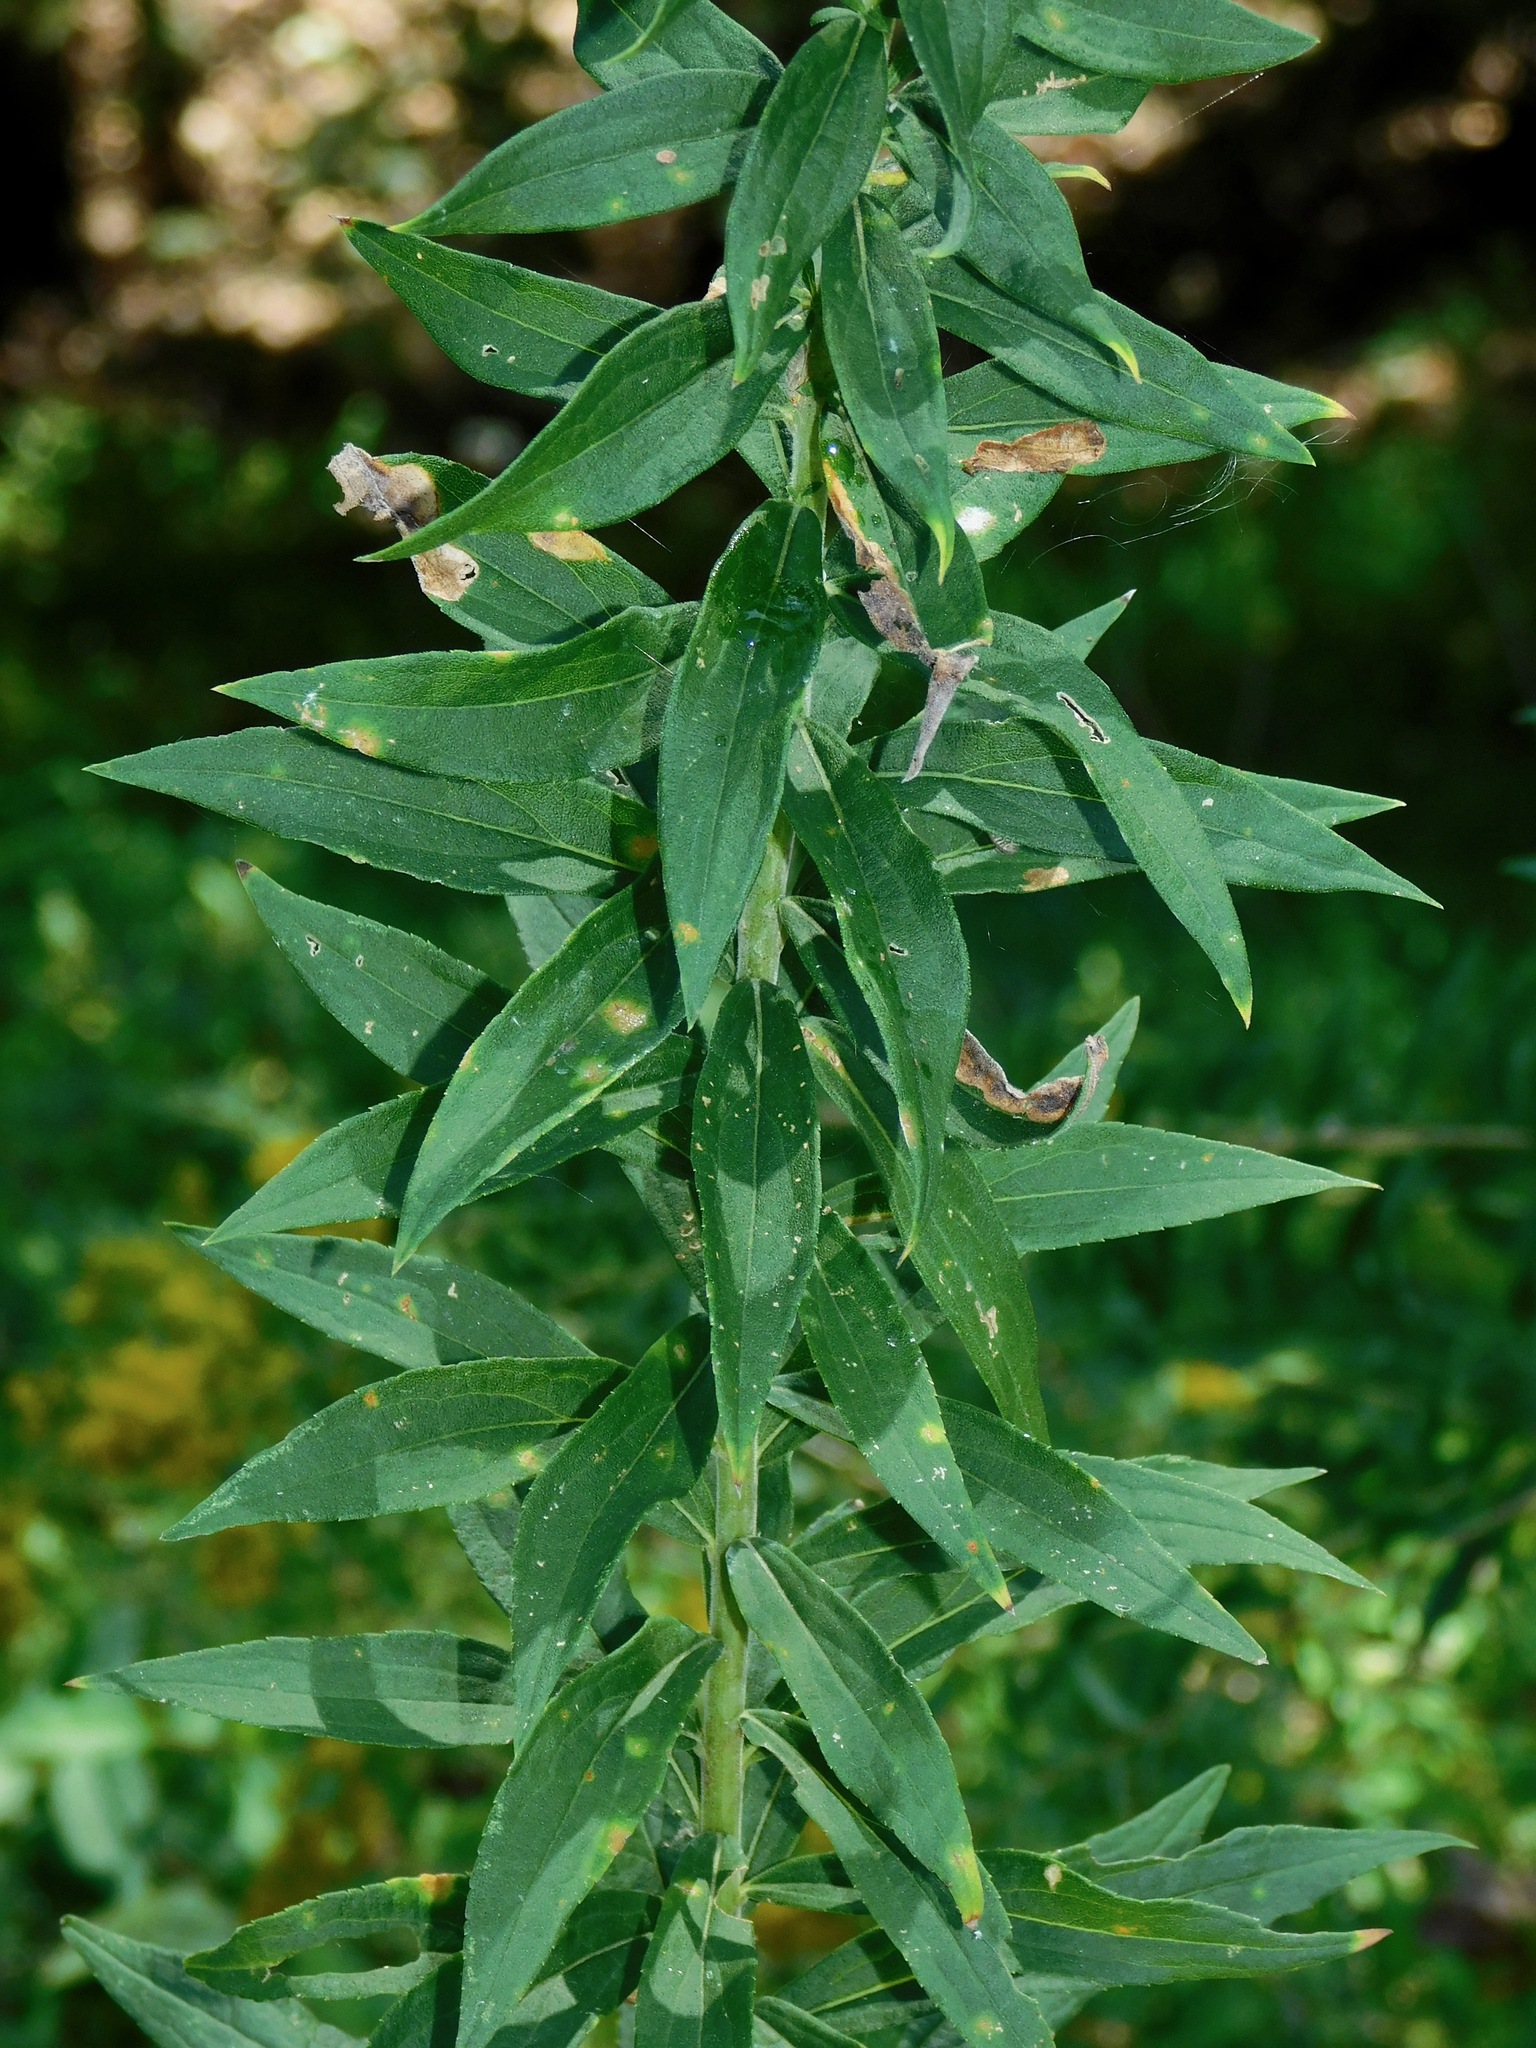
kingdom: Plantae
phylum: Tracheophyta
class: Magnoliopsida
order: Asterales
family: Asteraceae
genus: Solidago
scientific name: Solidago altissima
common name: Late goldenrod
